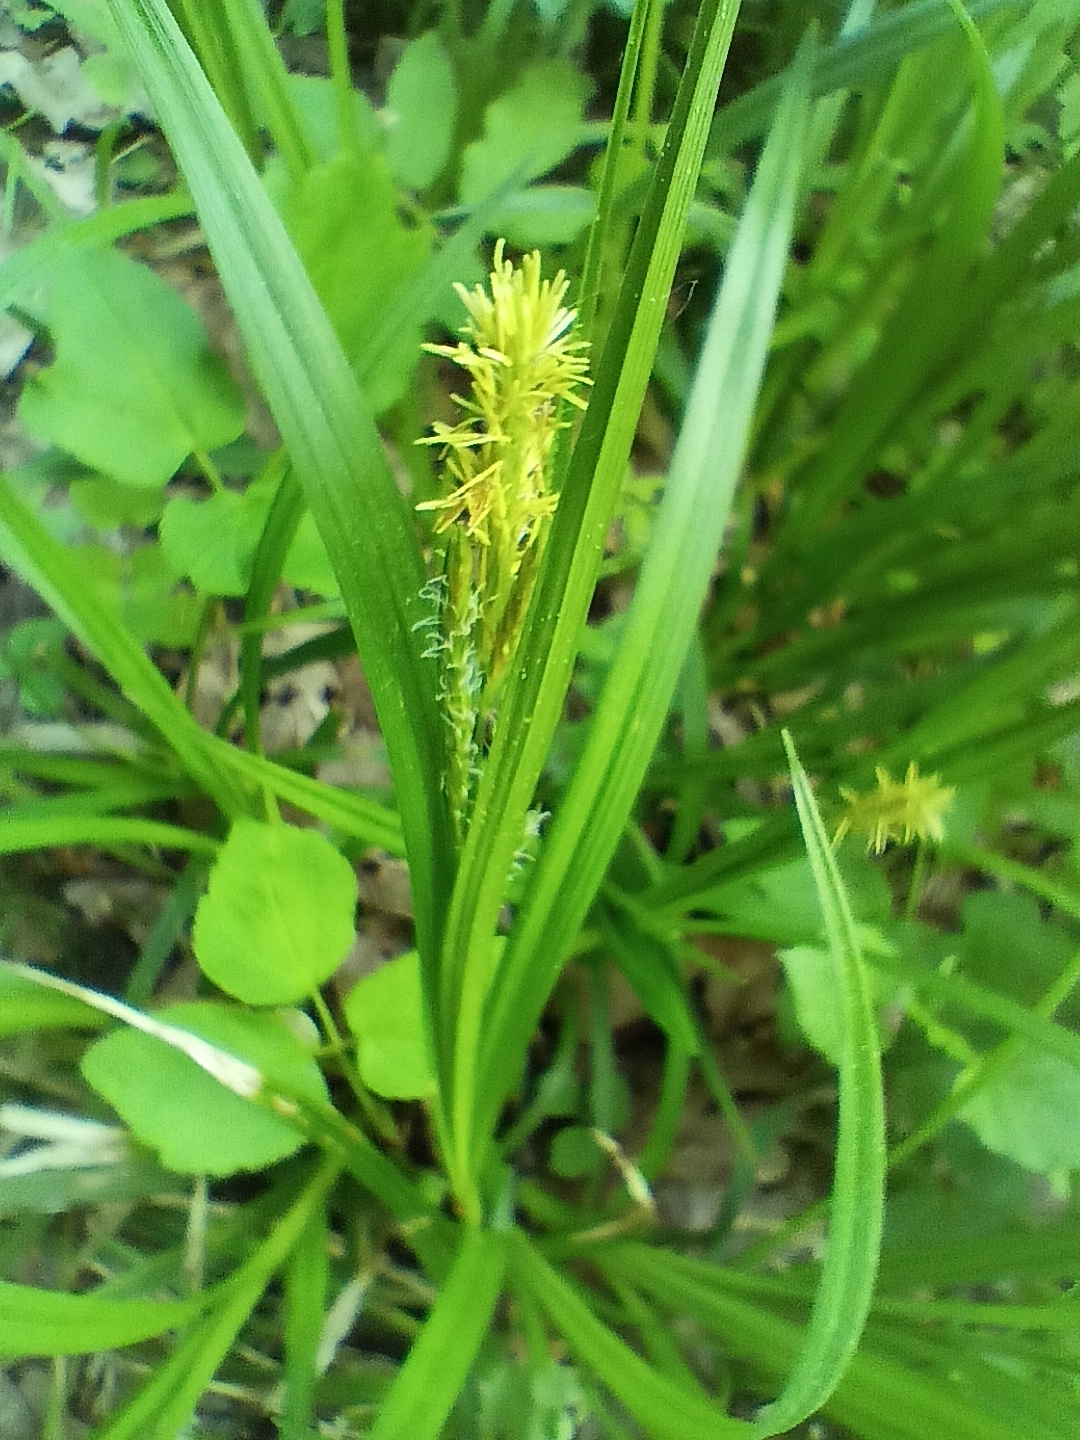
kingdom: Plantae
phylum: Tracheophyta
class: Liliopsida
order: Poales
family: Cyperaceae
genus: Carex
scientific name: Carex sylvatica
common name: Wood-sedge
